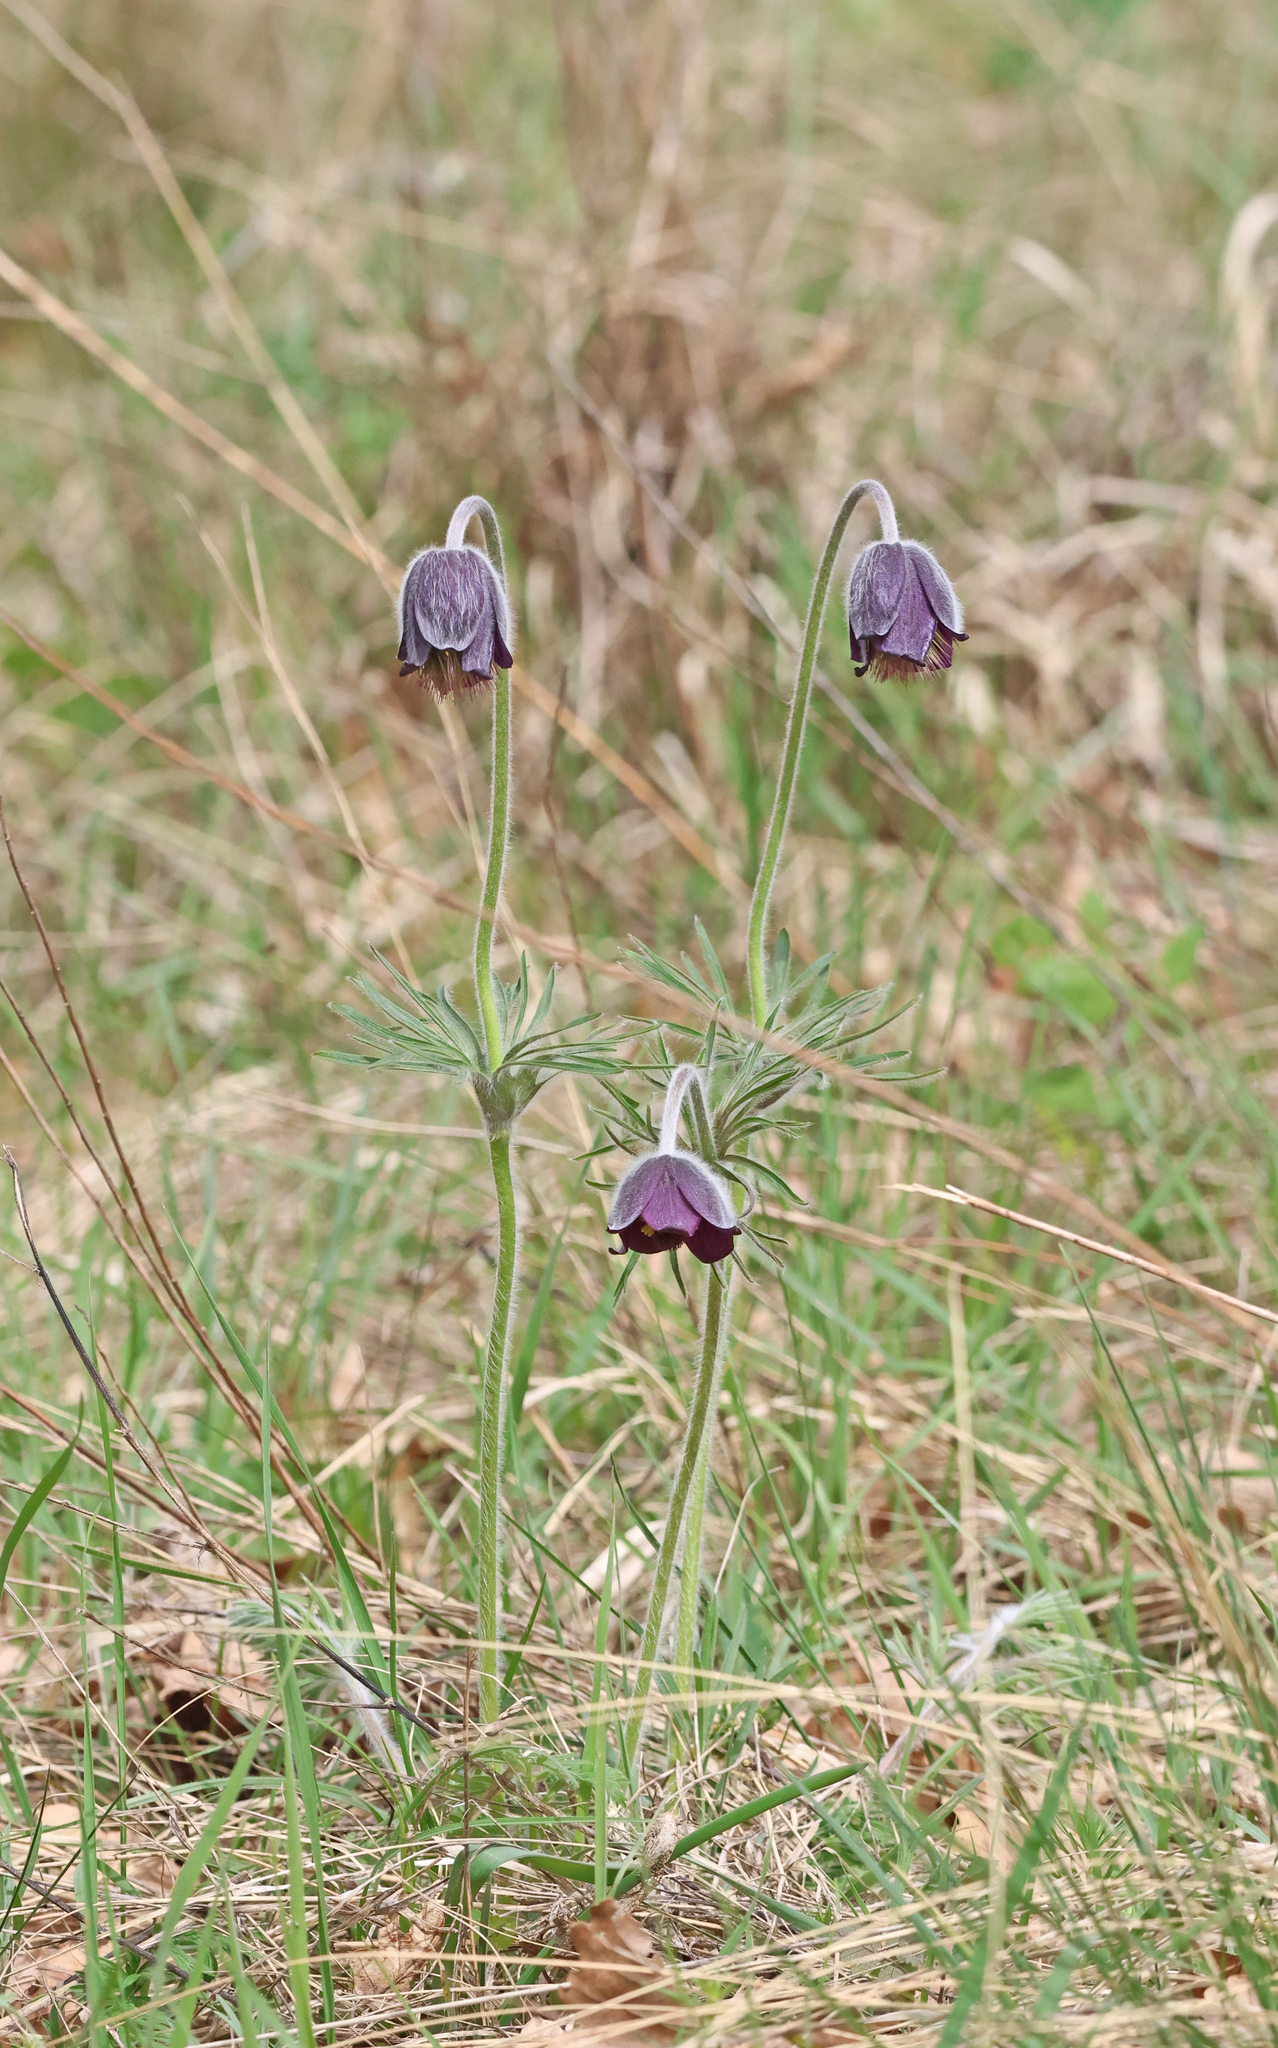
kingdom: Plantae
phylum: Tracheophyta
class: Magnoliopsida
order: Ranunculales
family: Ranunculaceae
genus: Pulsatilla
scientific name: Pulsatilla pratensis
